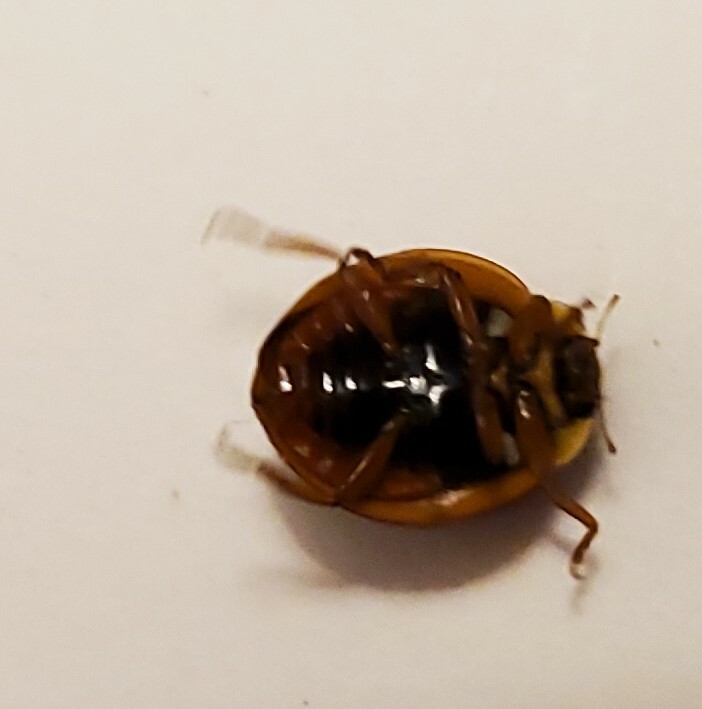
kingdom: Animalia
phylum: Arthropoda
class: Insecta
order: Coleoptera
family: Coccinellidae
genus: Harmonia
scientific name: Harmonia axyridis
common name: Harlequin ladybird
